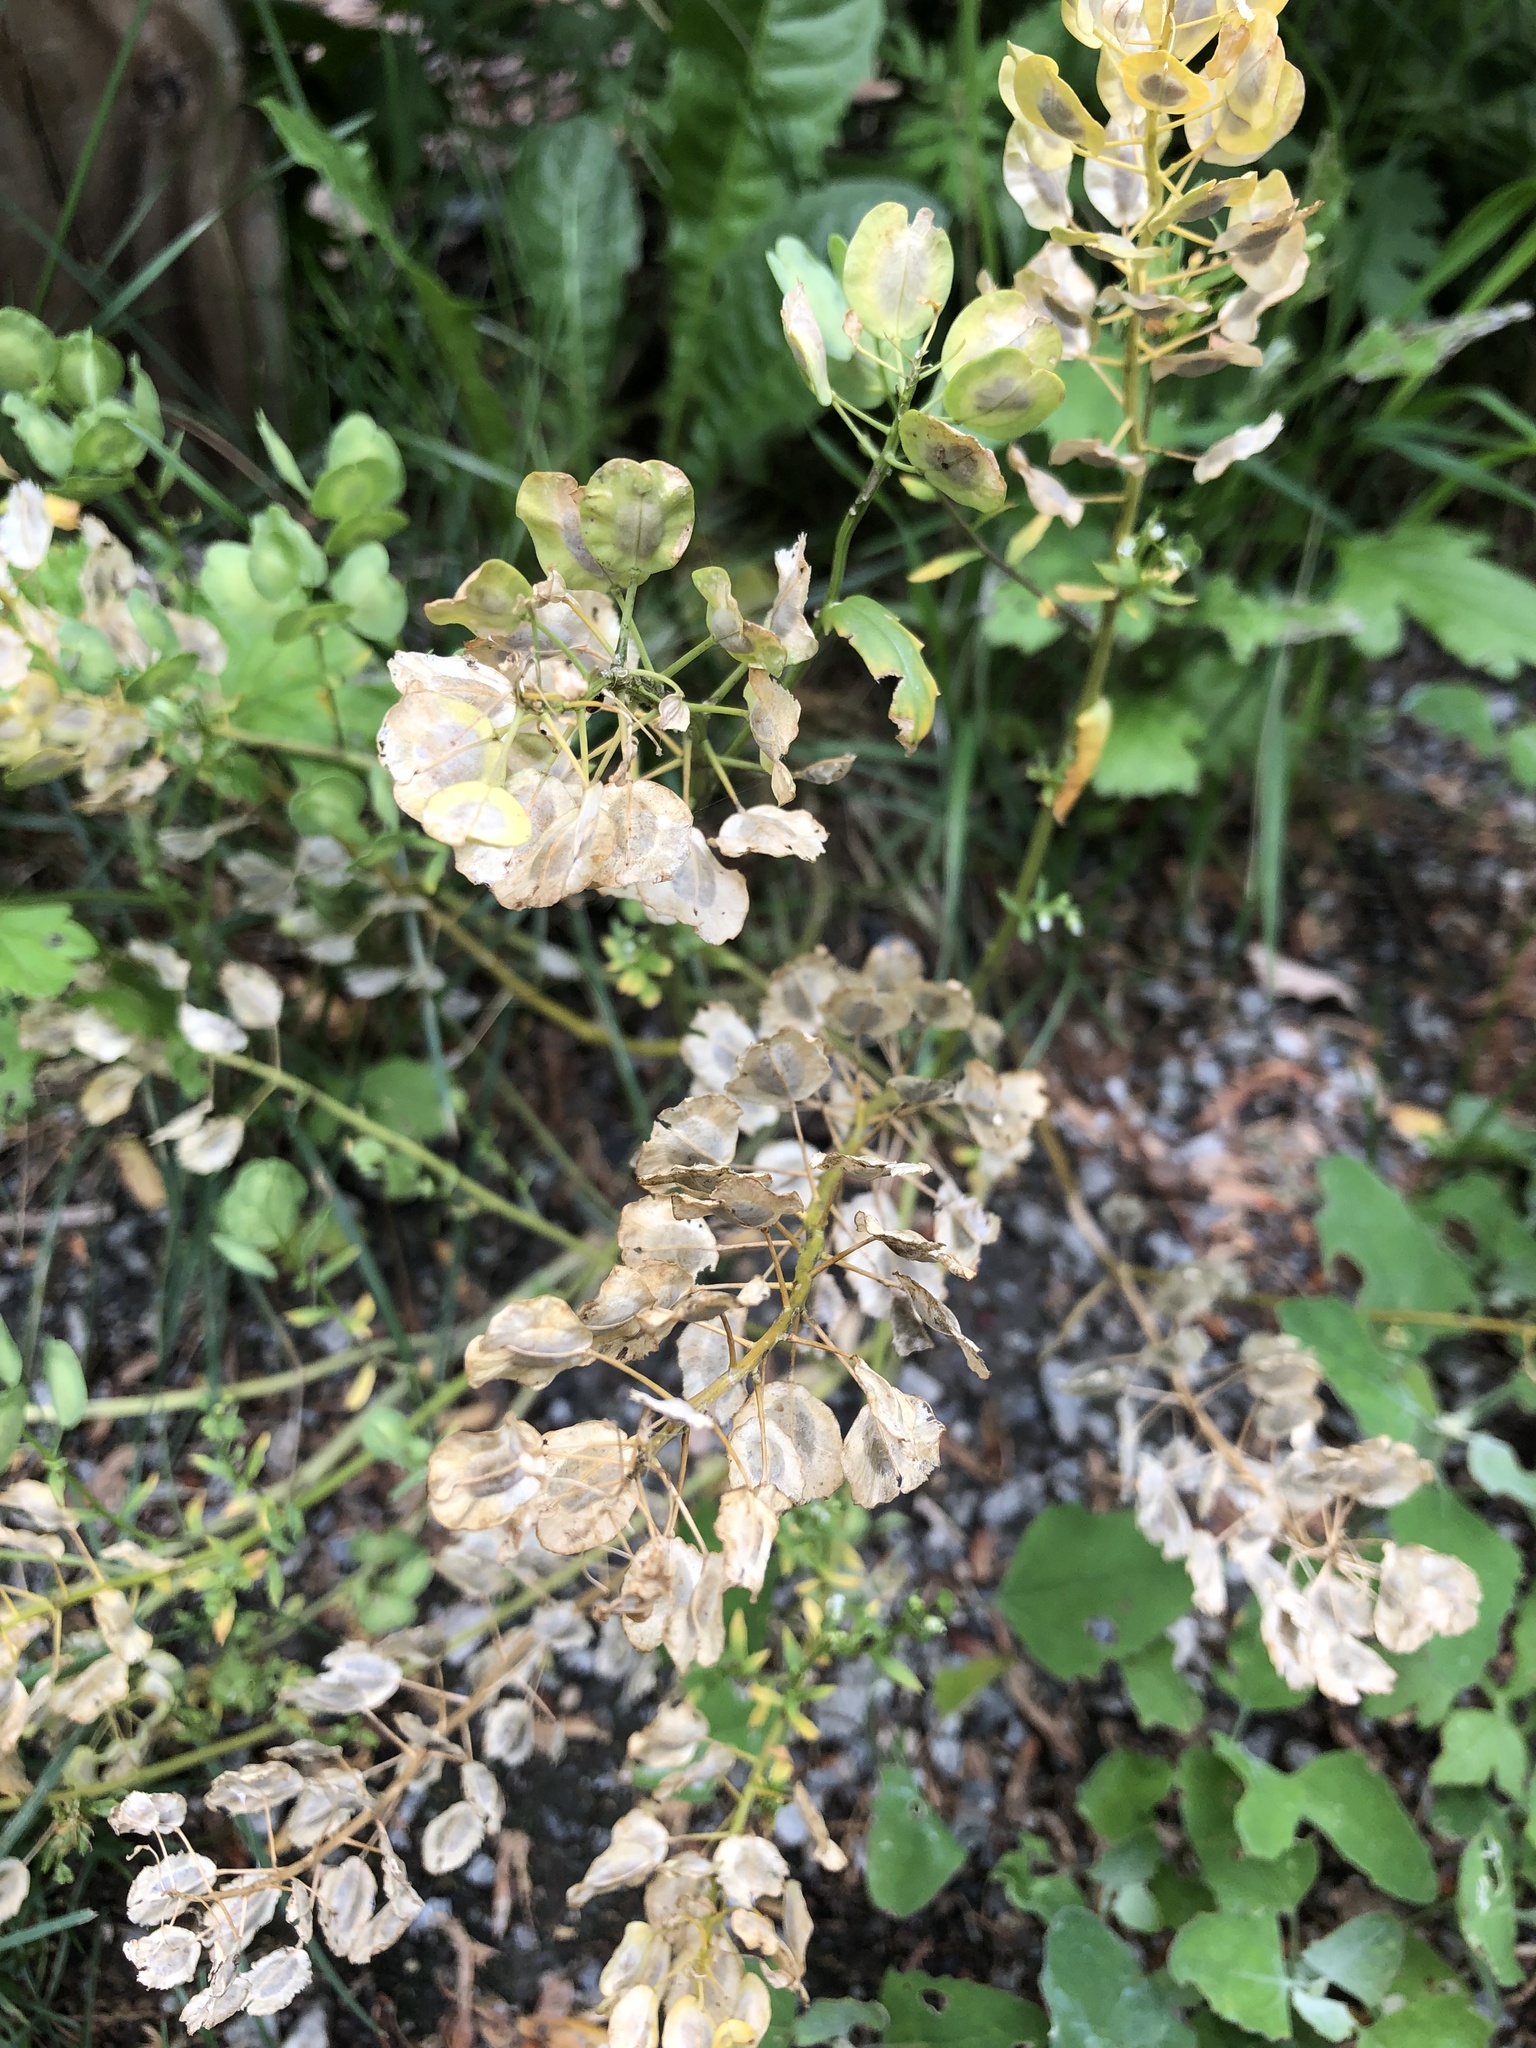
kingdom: Plantae
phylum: Tracheophyta
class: Magnoliopsida
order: Brassicales
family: Brassicaceae
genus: Thlaspi
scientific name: Thlaspi arvense
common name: Field pennycress
